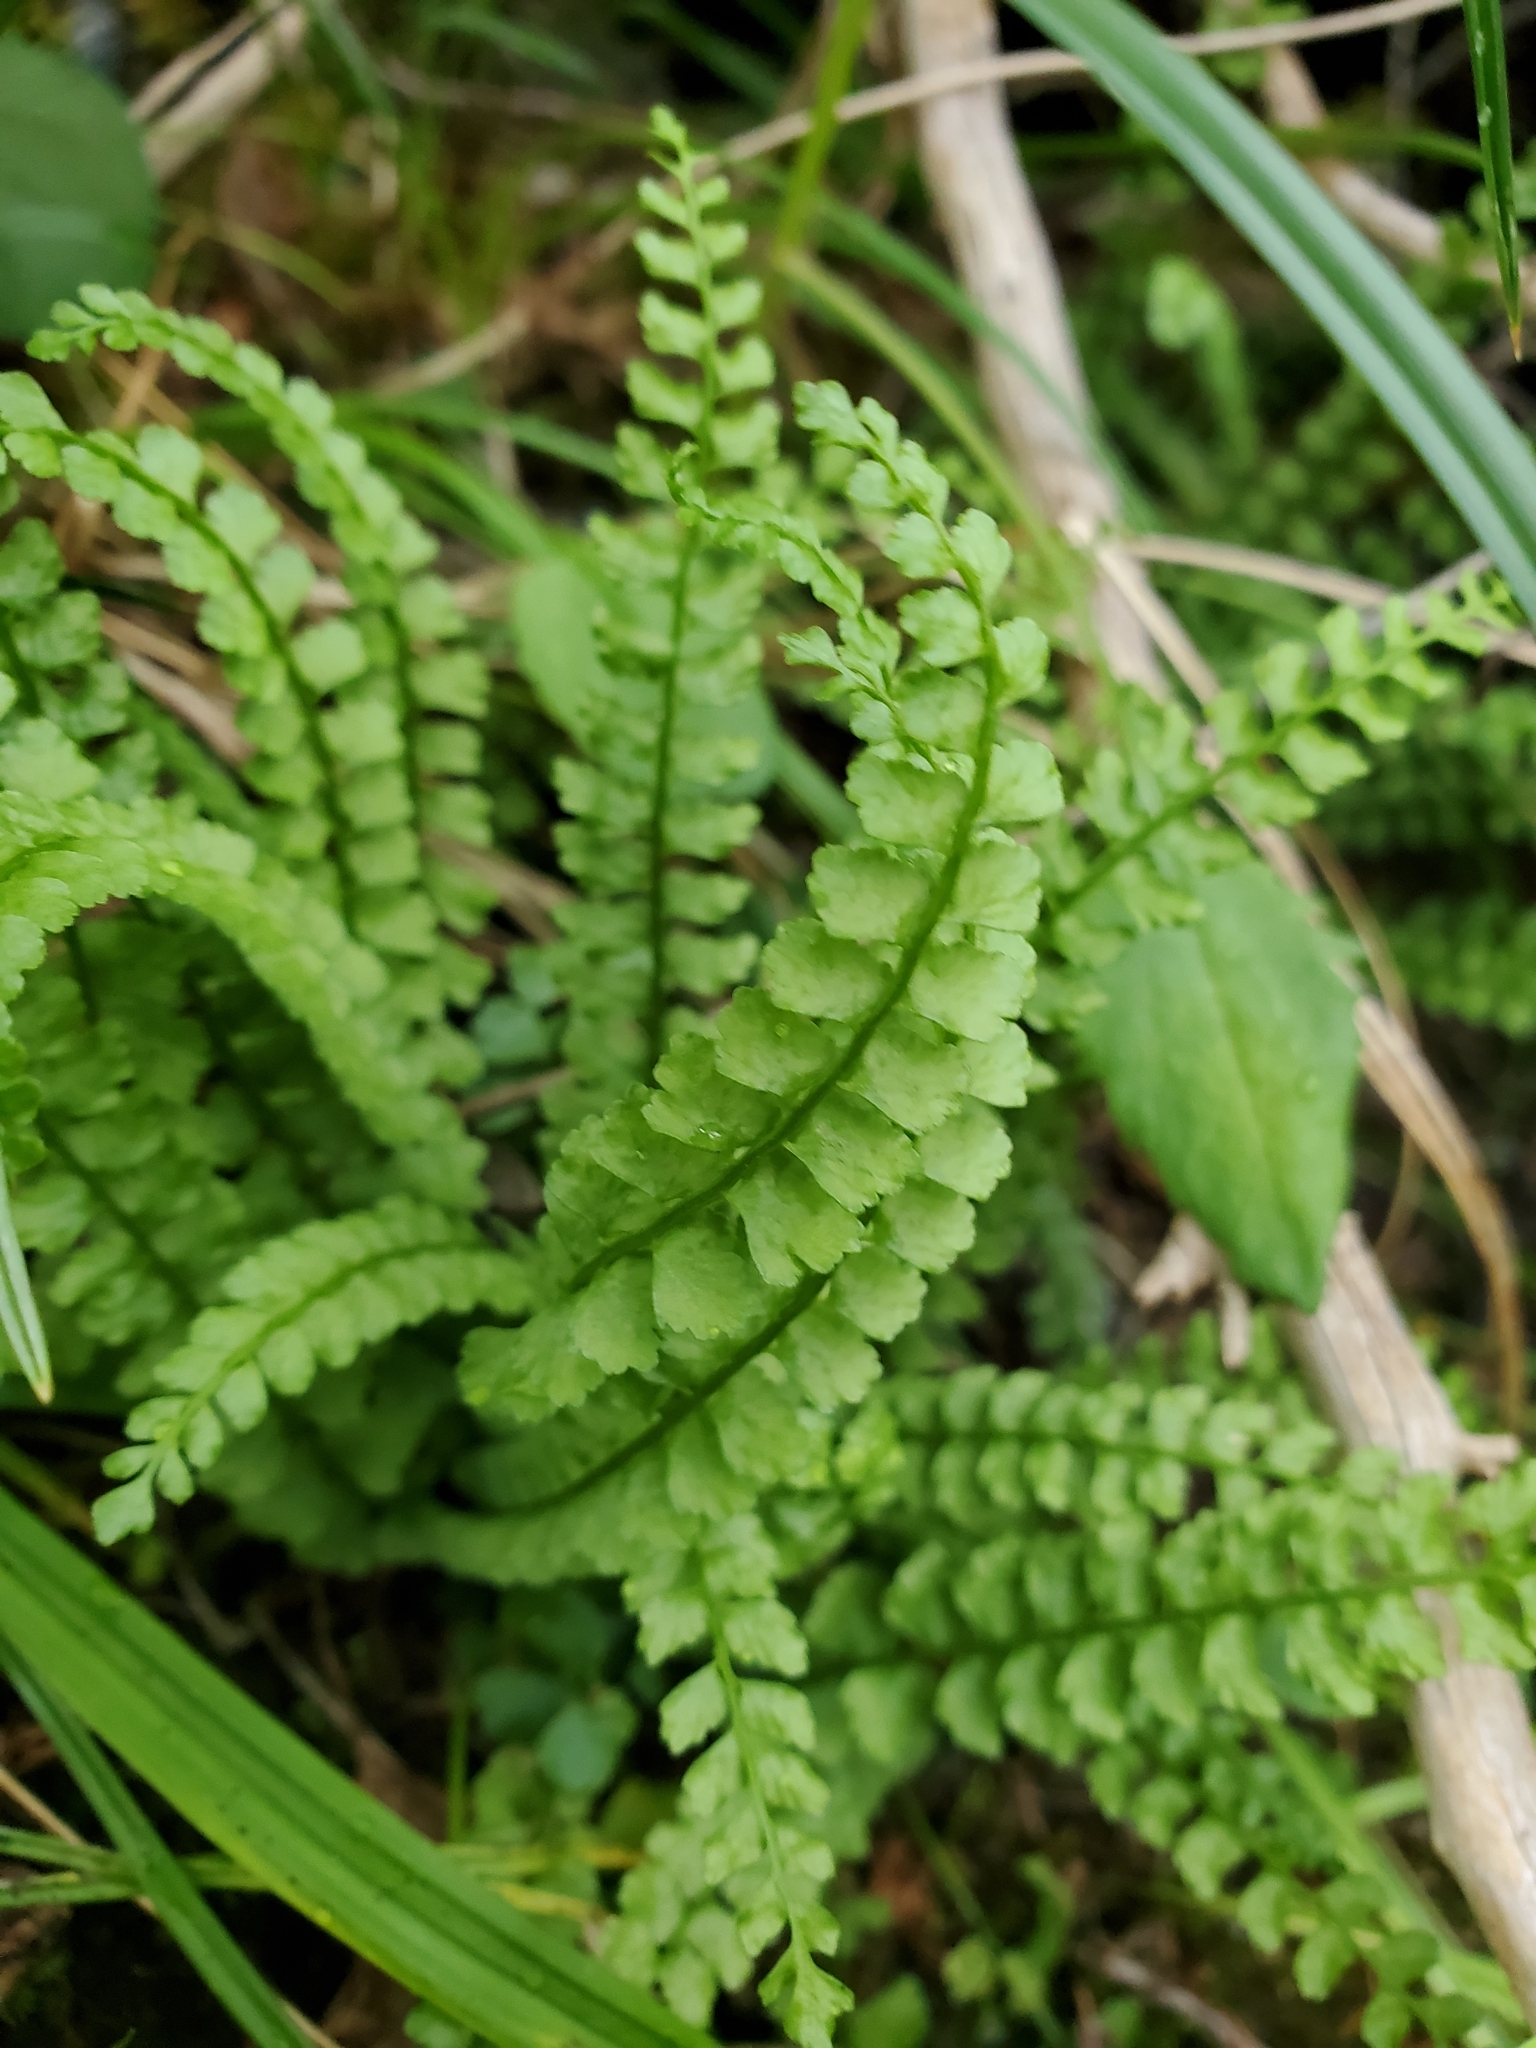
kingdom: Plantae
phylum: Tracheophyta
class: Polypodiopsida
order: Polypodiales
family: Aspleniaceae
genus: Asplenium
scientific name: Asplenium viride
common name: Green spleenwort
